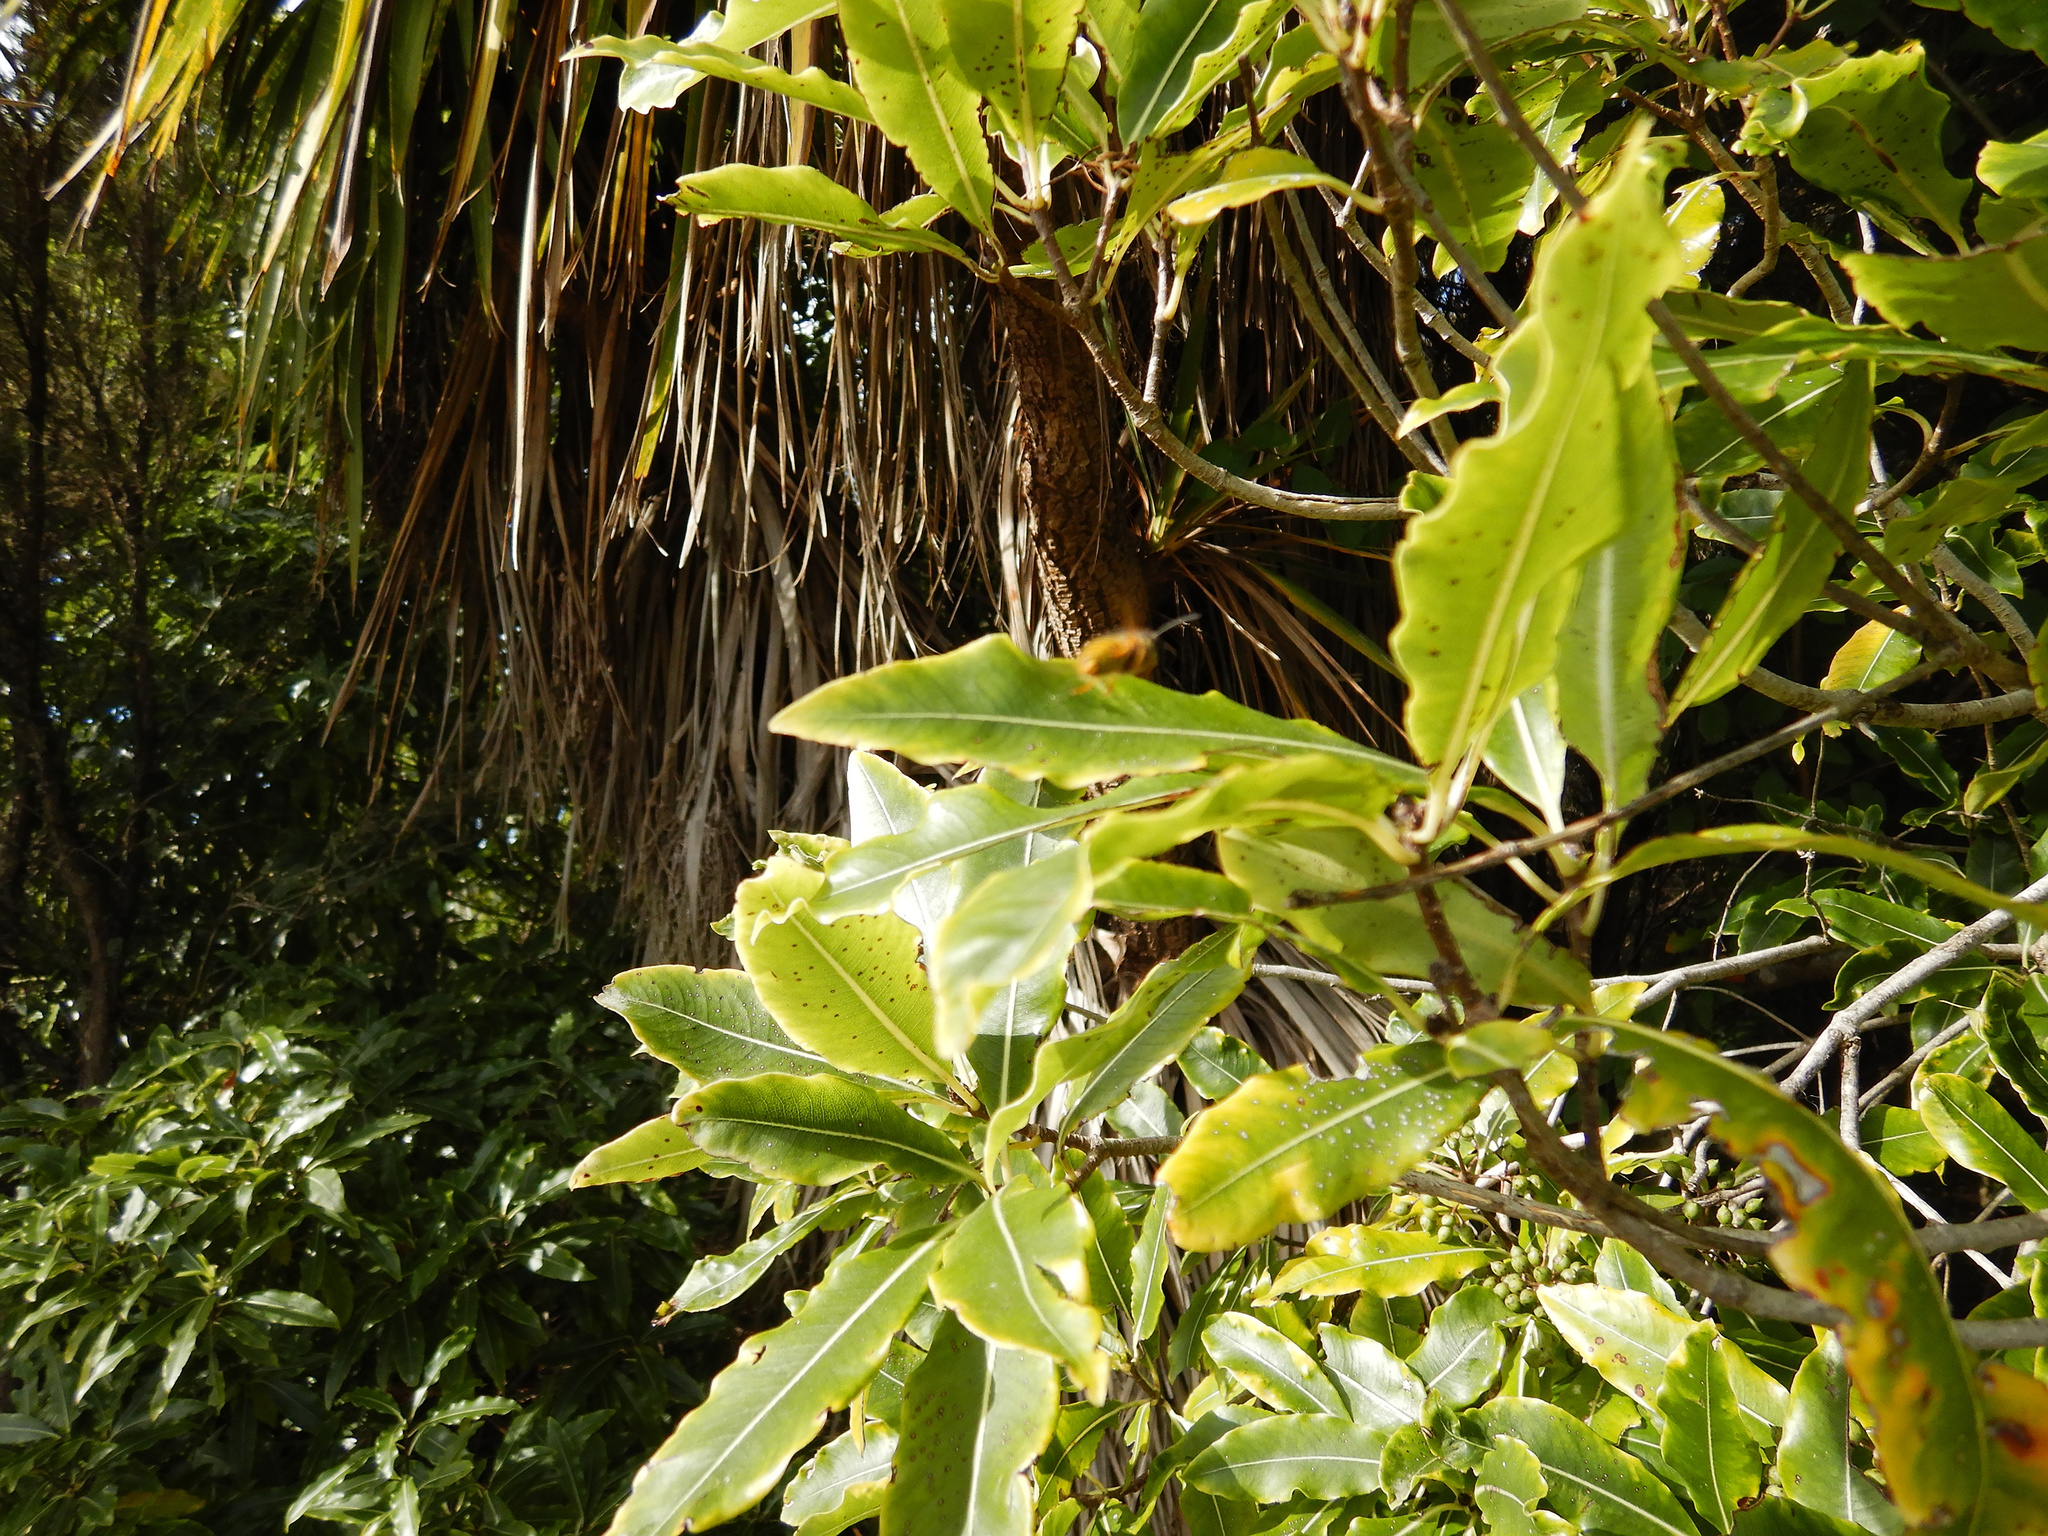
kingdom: Animalia
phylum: Arthropoda
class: Insecta
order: Hymenoptera
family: Vespidae
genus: Vespula
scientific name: Vespula
